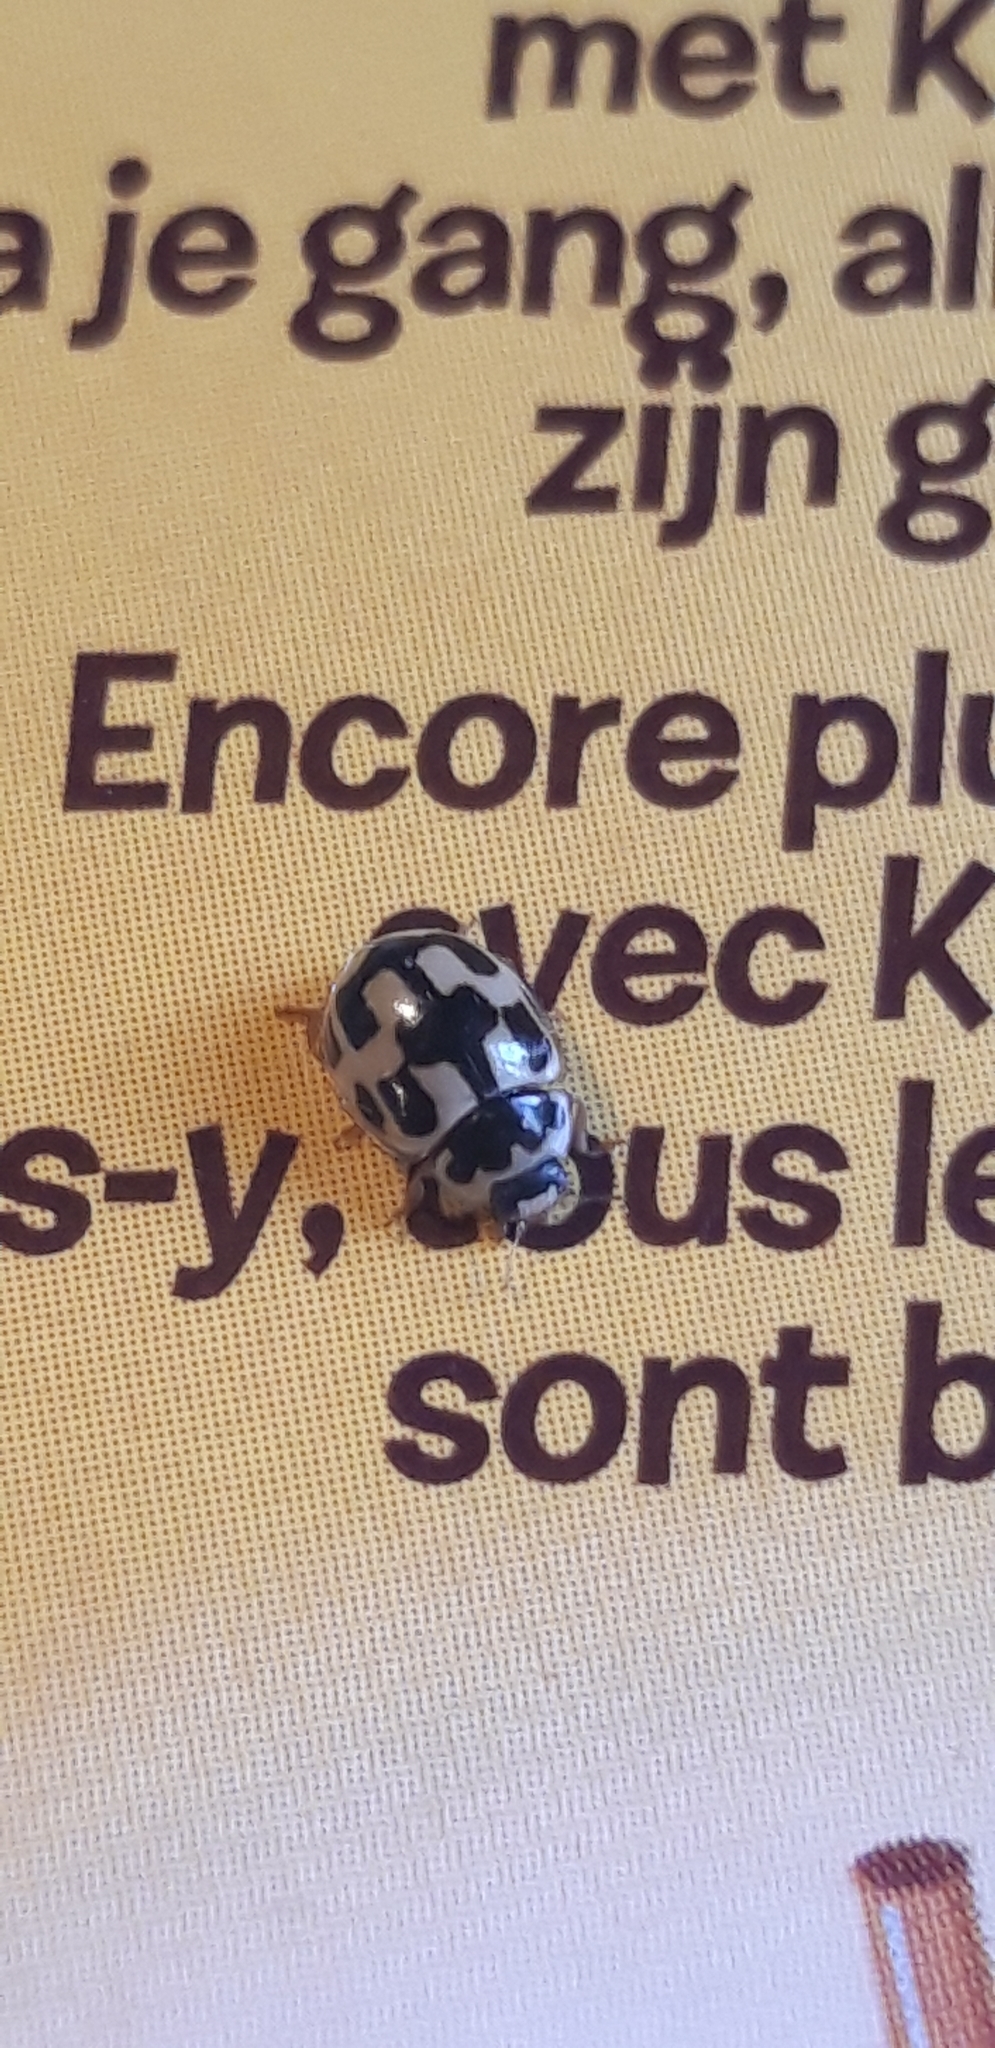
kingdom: Animalia
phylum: Arthropoda
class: Insecta
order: Coleoptera
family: Coccinellidae
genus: Propylaea
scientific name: Propylaea quatuordecimpunctata
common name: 14-spotted ladybird beetle
